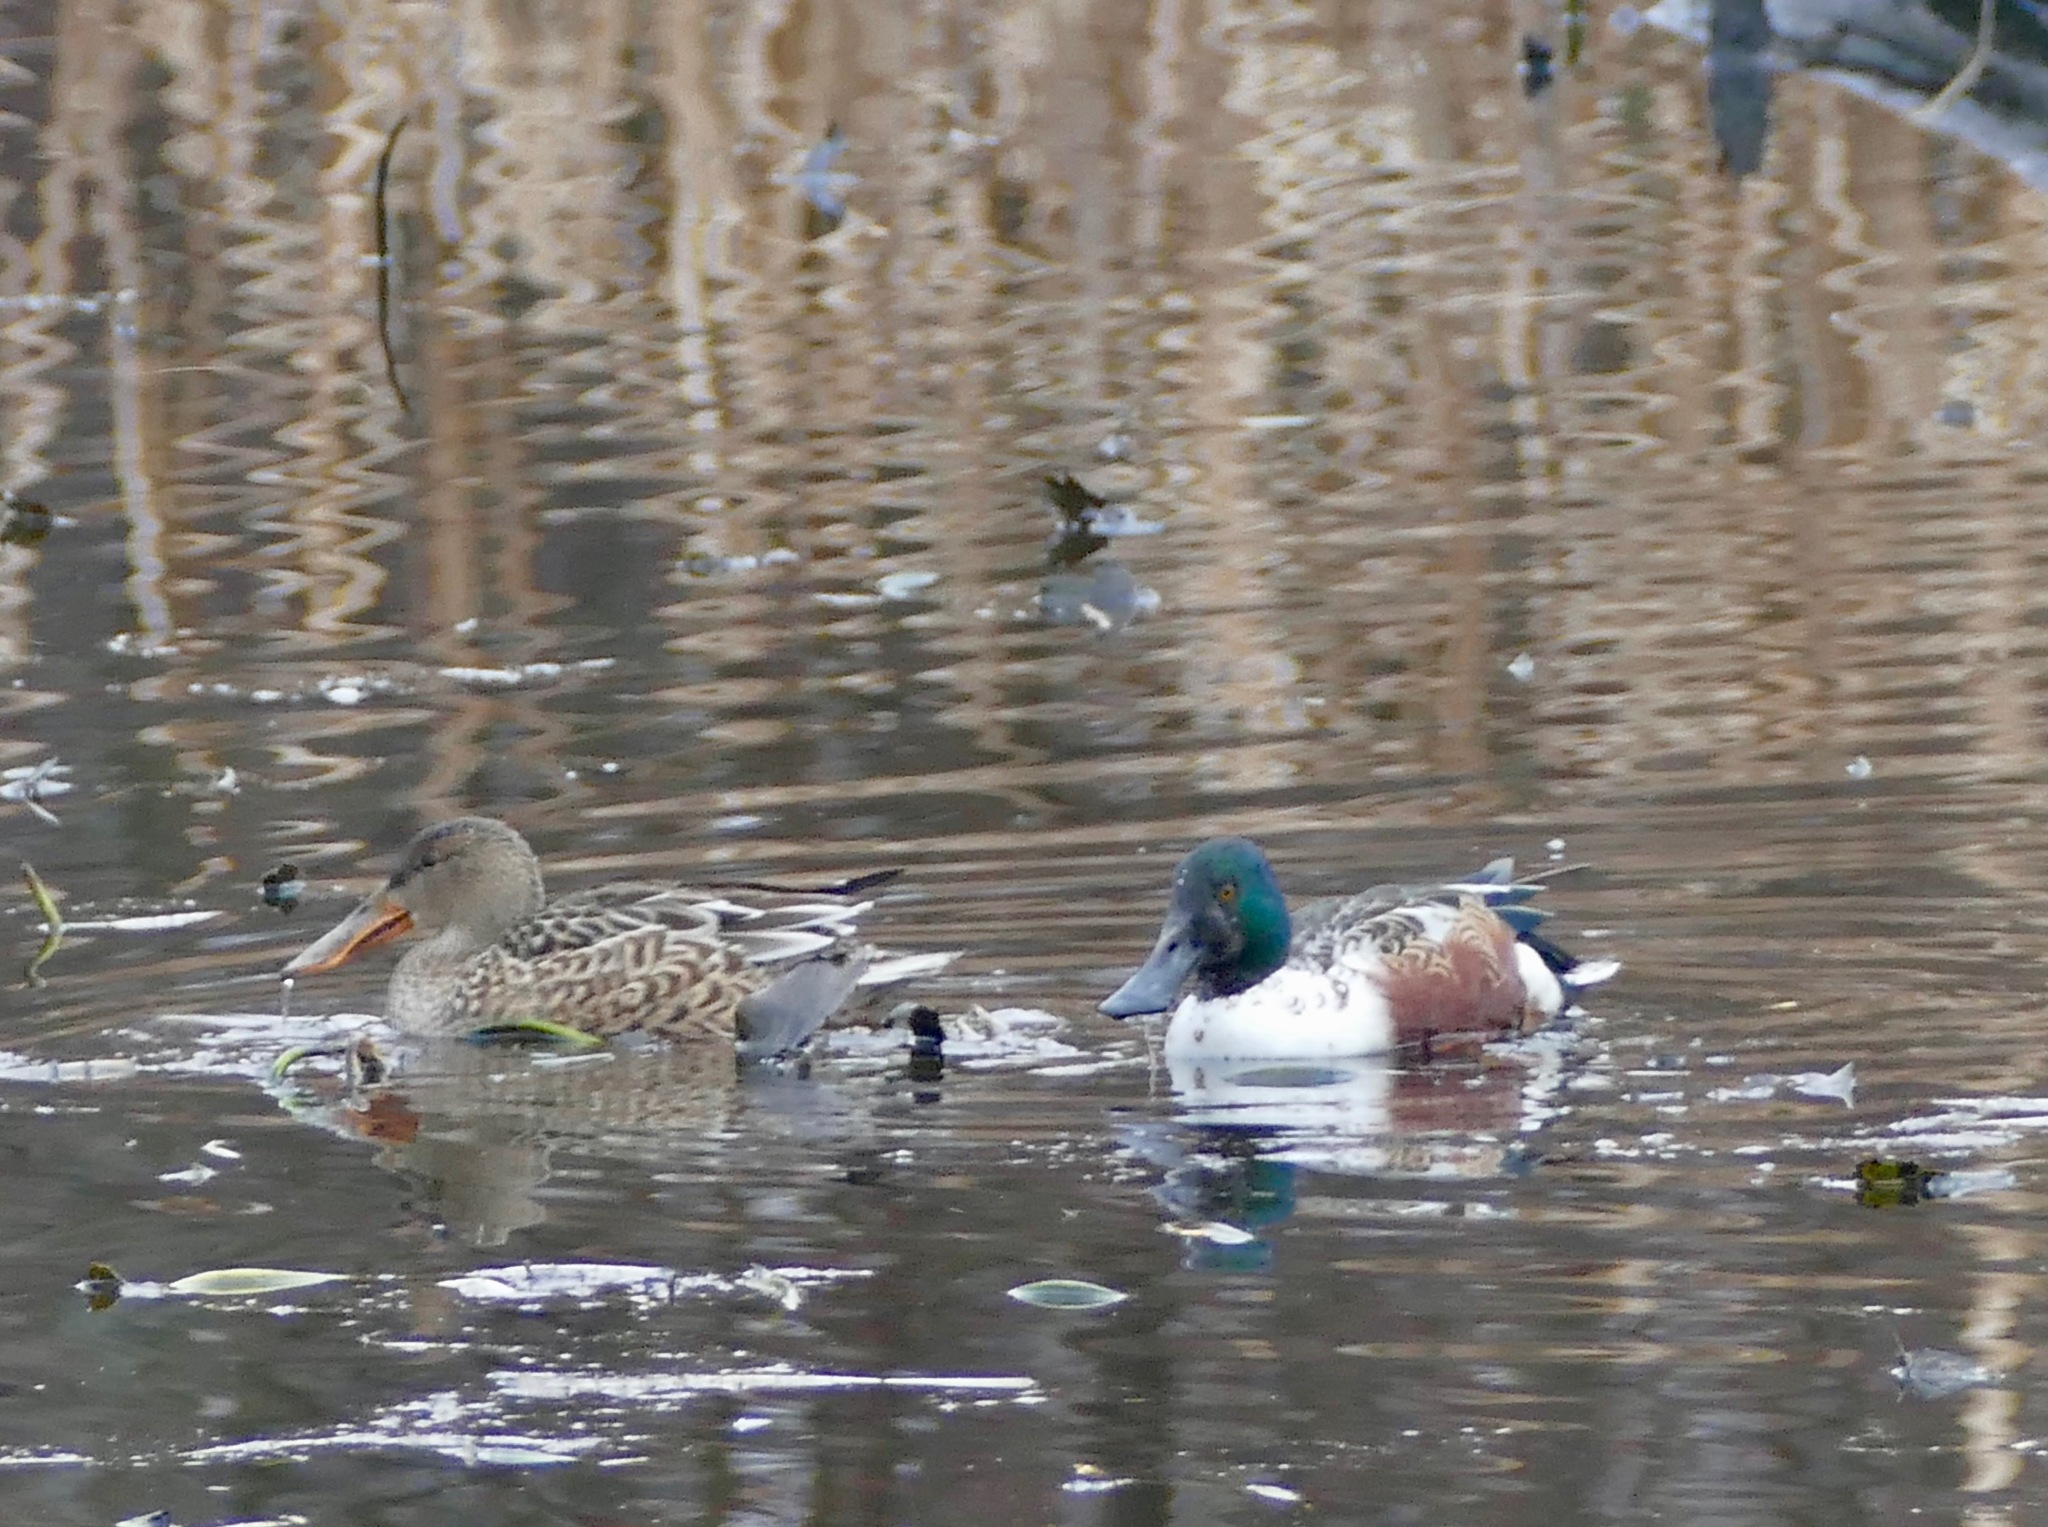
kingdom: Animalia
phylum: Chordata
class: Aves
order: Anseriformes
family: Anatidae
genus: Spatula
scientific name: Spatula clypeata
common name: Northern shoveler
